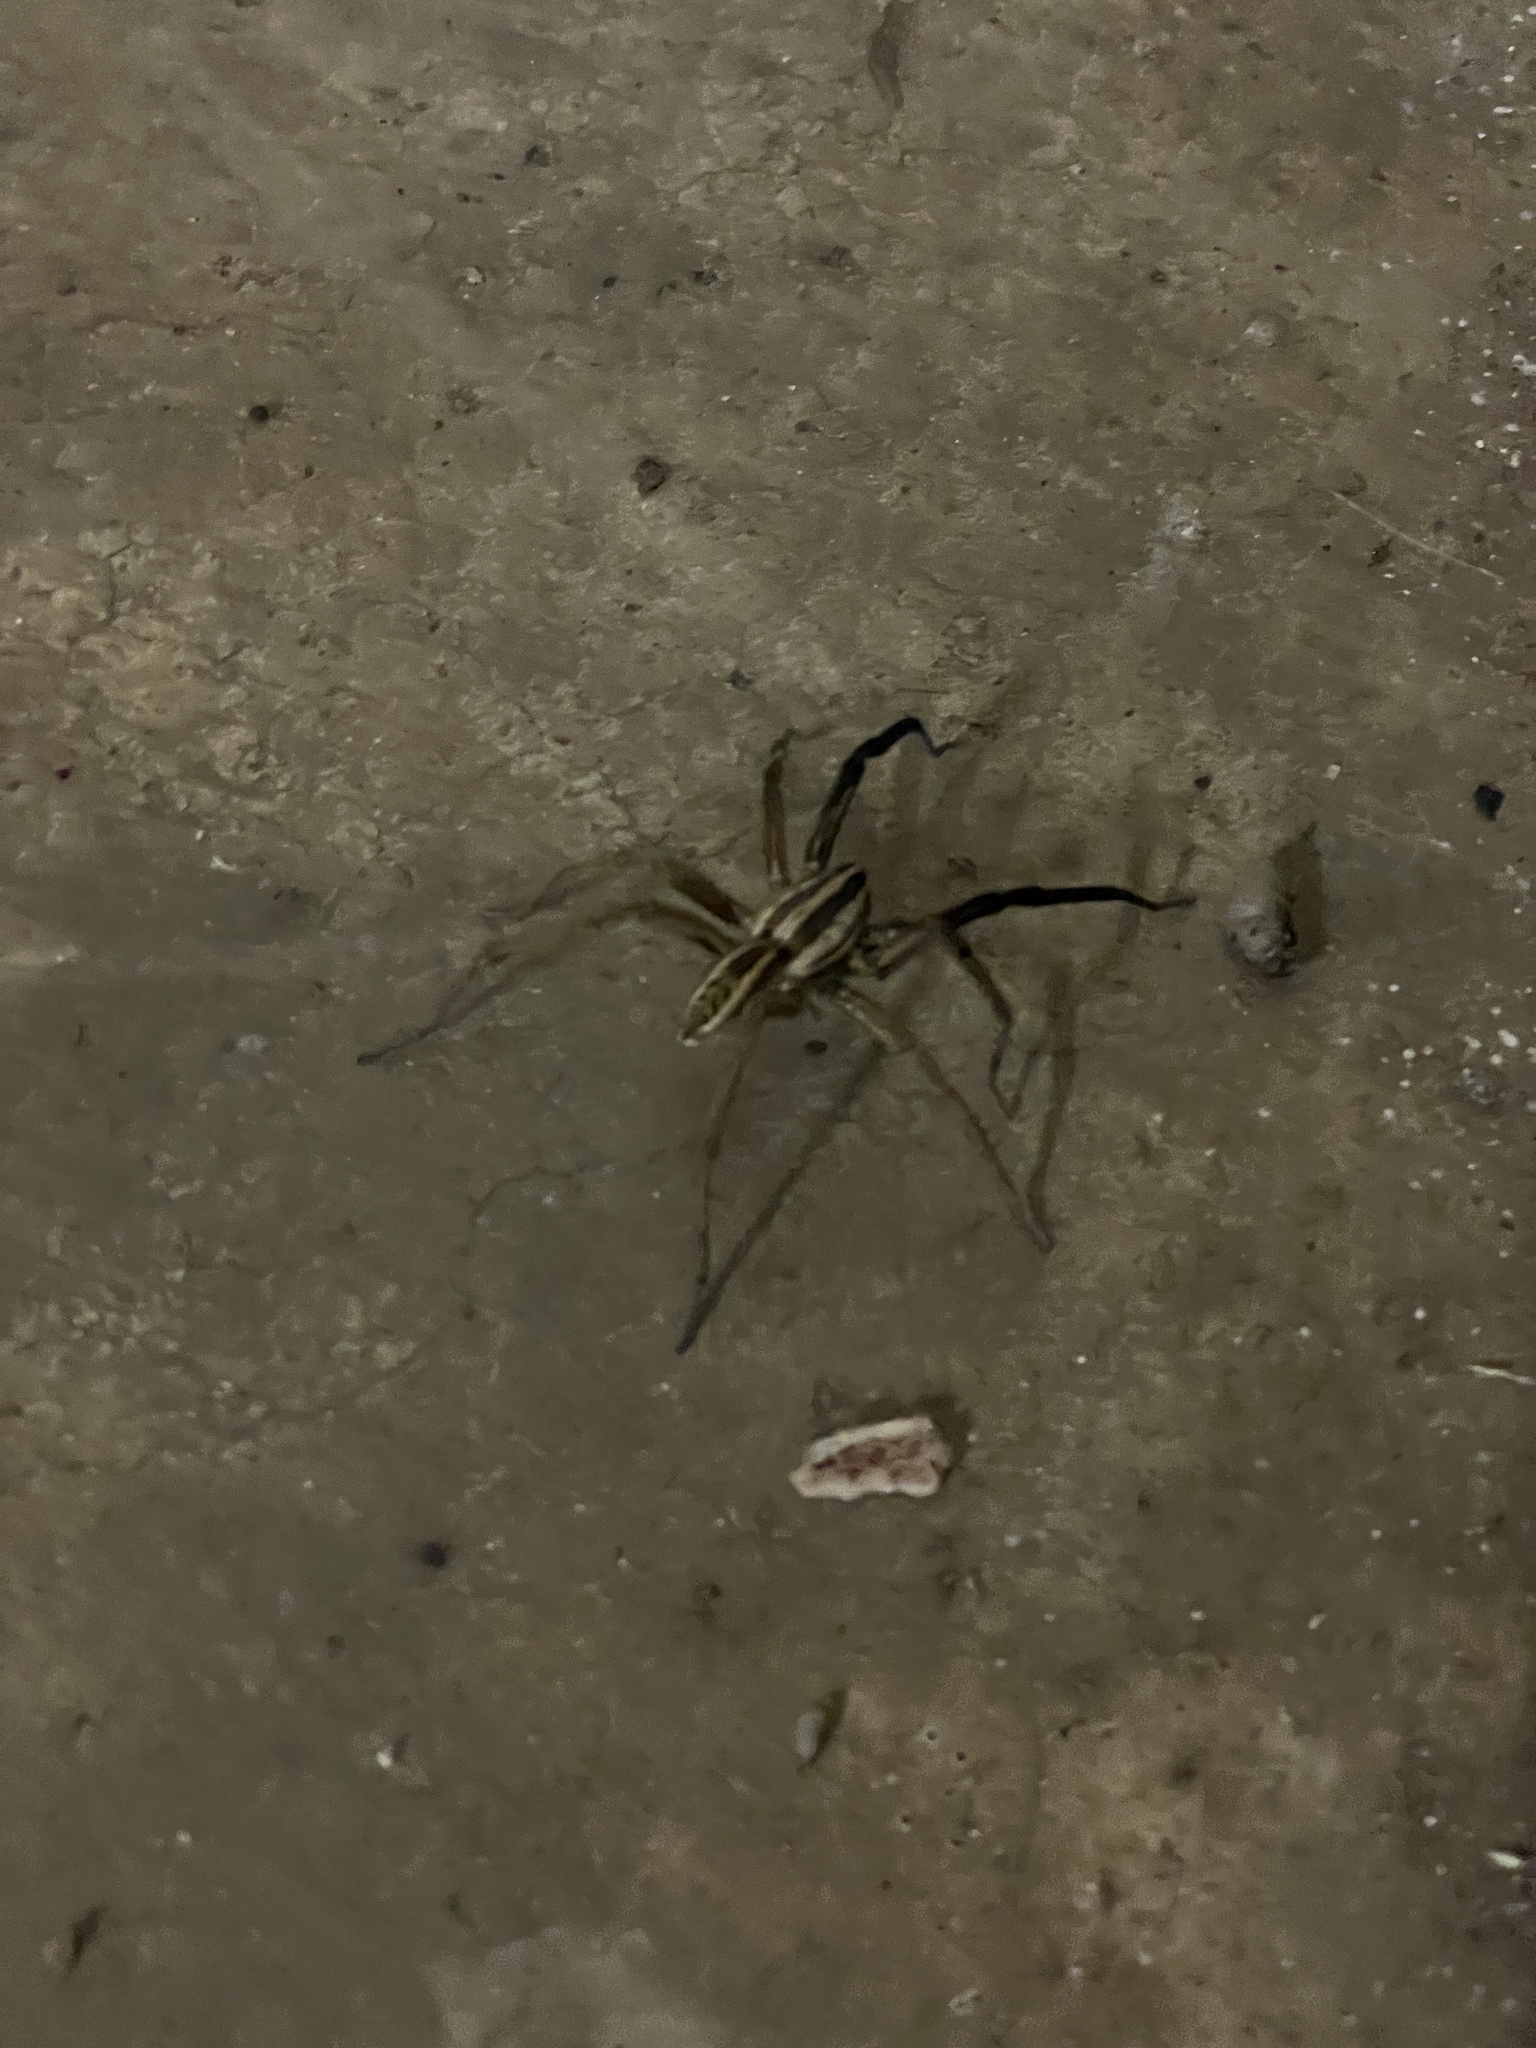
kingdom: Animalia
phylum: Arthropoda
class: Arachnida
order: Araneae
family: Lycosidae
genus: Rabidosa
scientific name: Rabidosa rabida
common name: Rabid wolf spider
